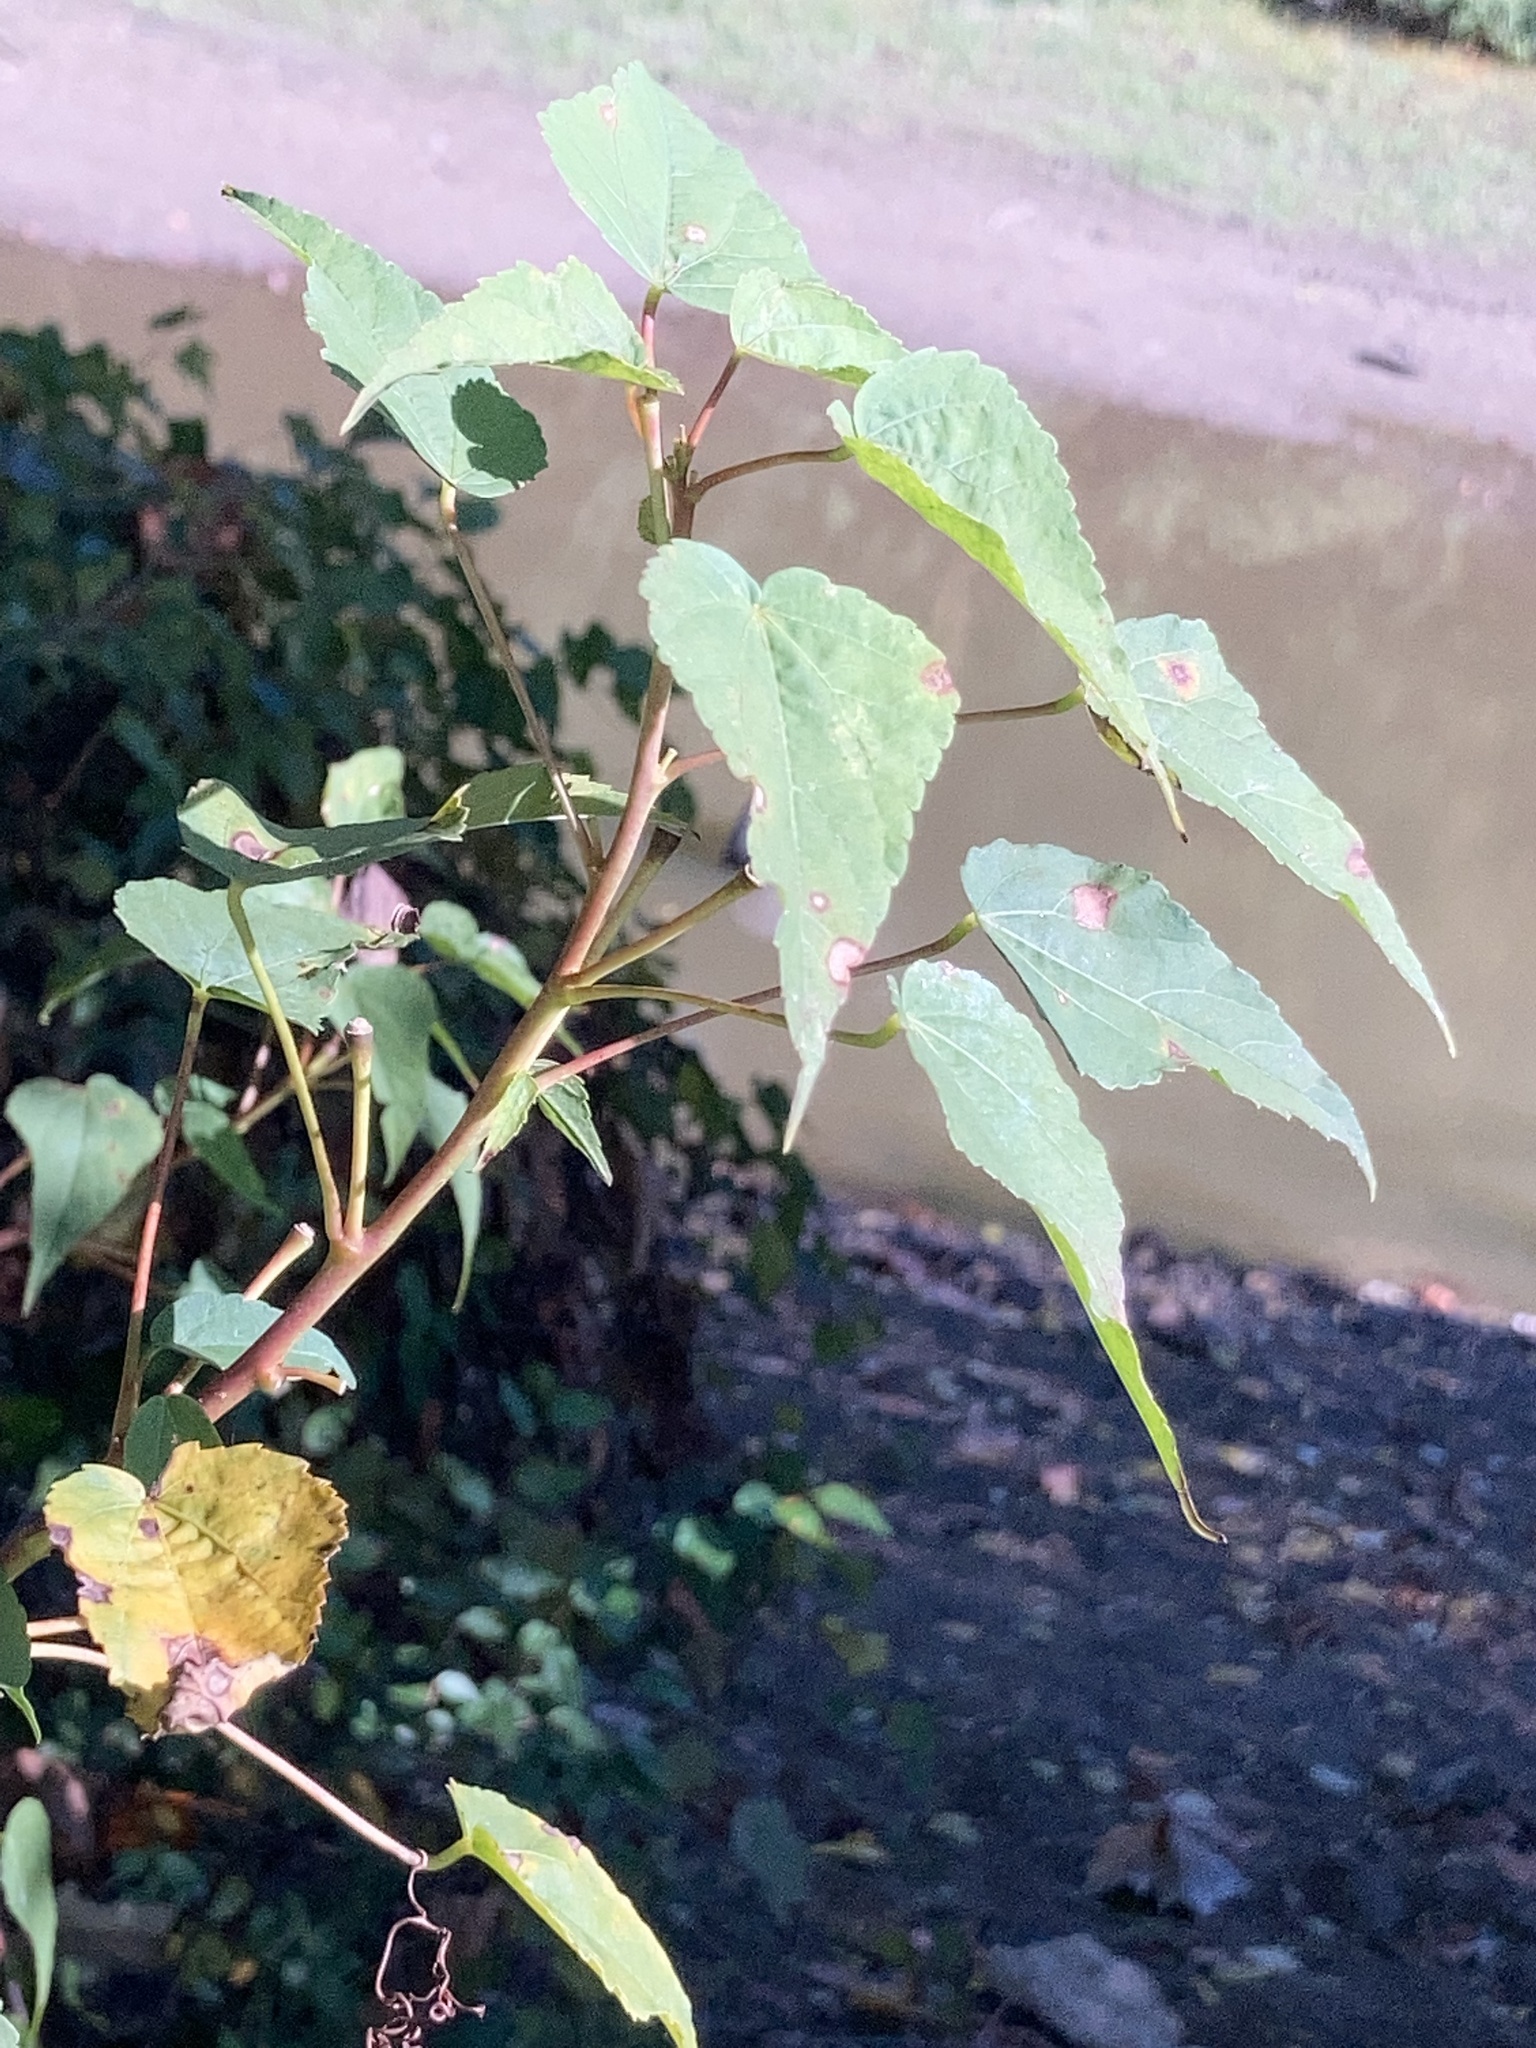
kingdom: Plantae
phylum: Tracheophyta
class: Magnoliopsida
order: Malvales
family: Malvaceae
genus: Hibiscus
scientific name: Hibiscus laevis
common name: Scarlet rose-mallow
